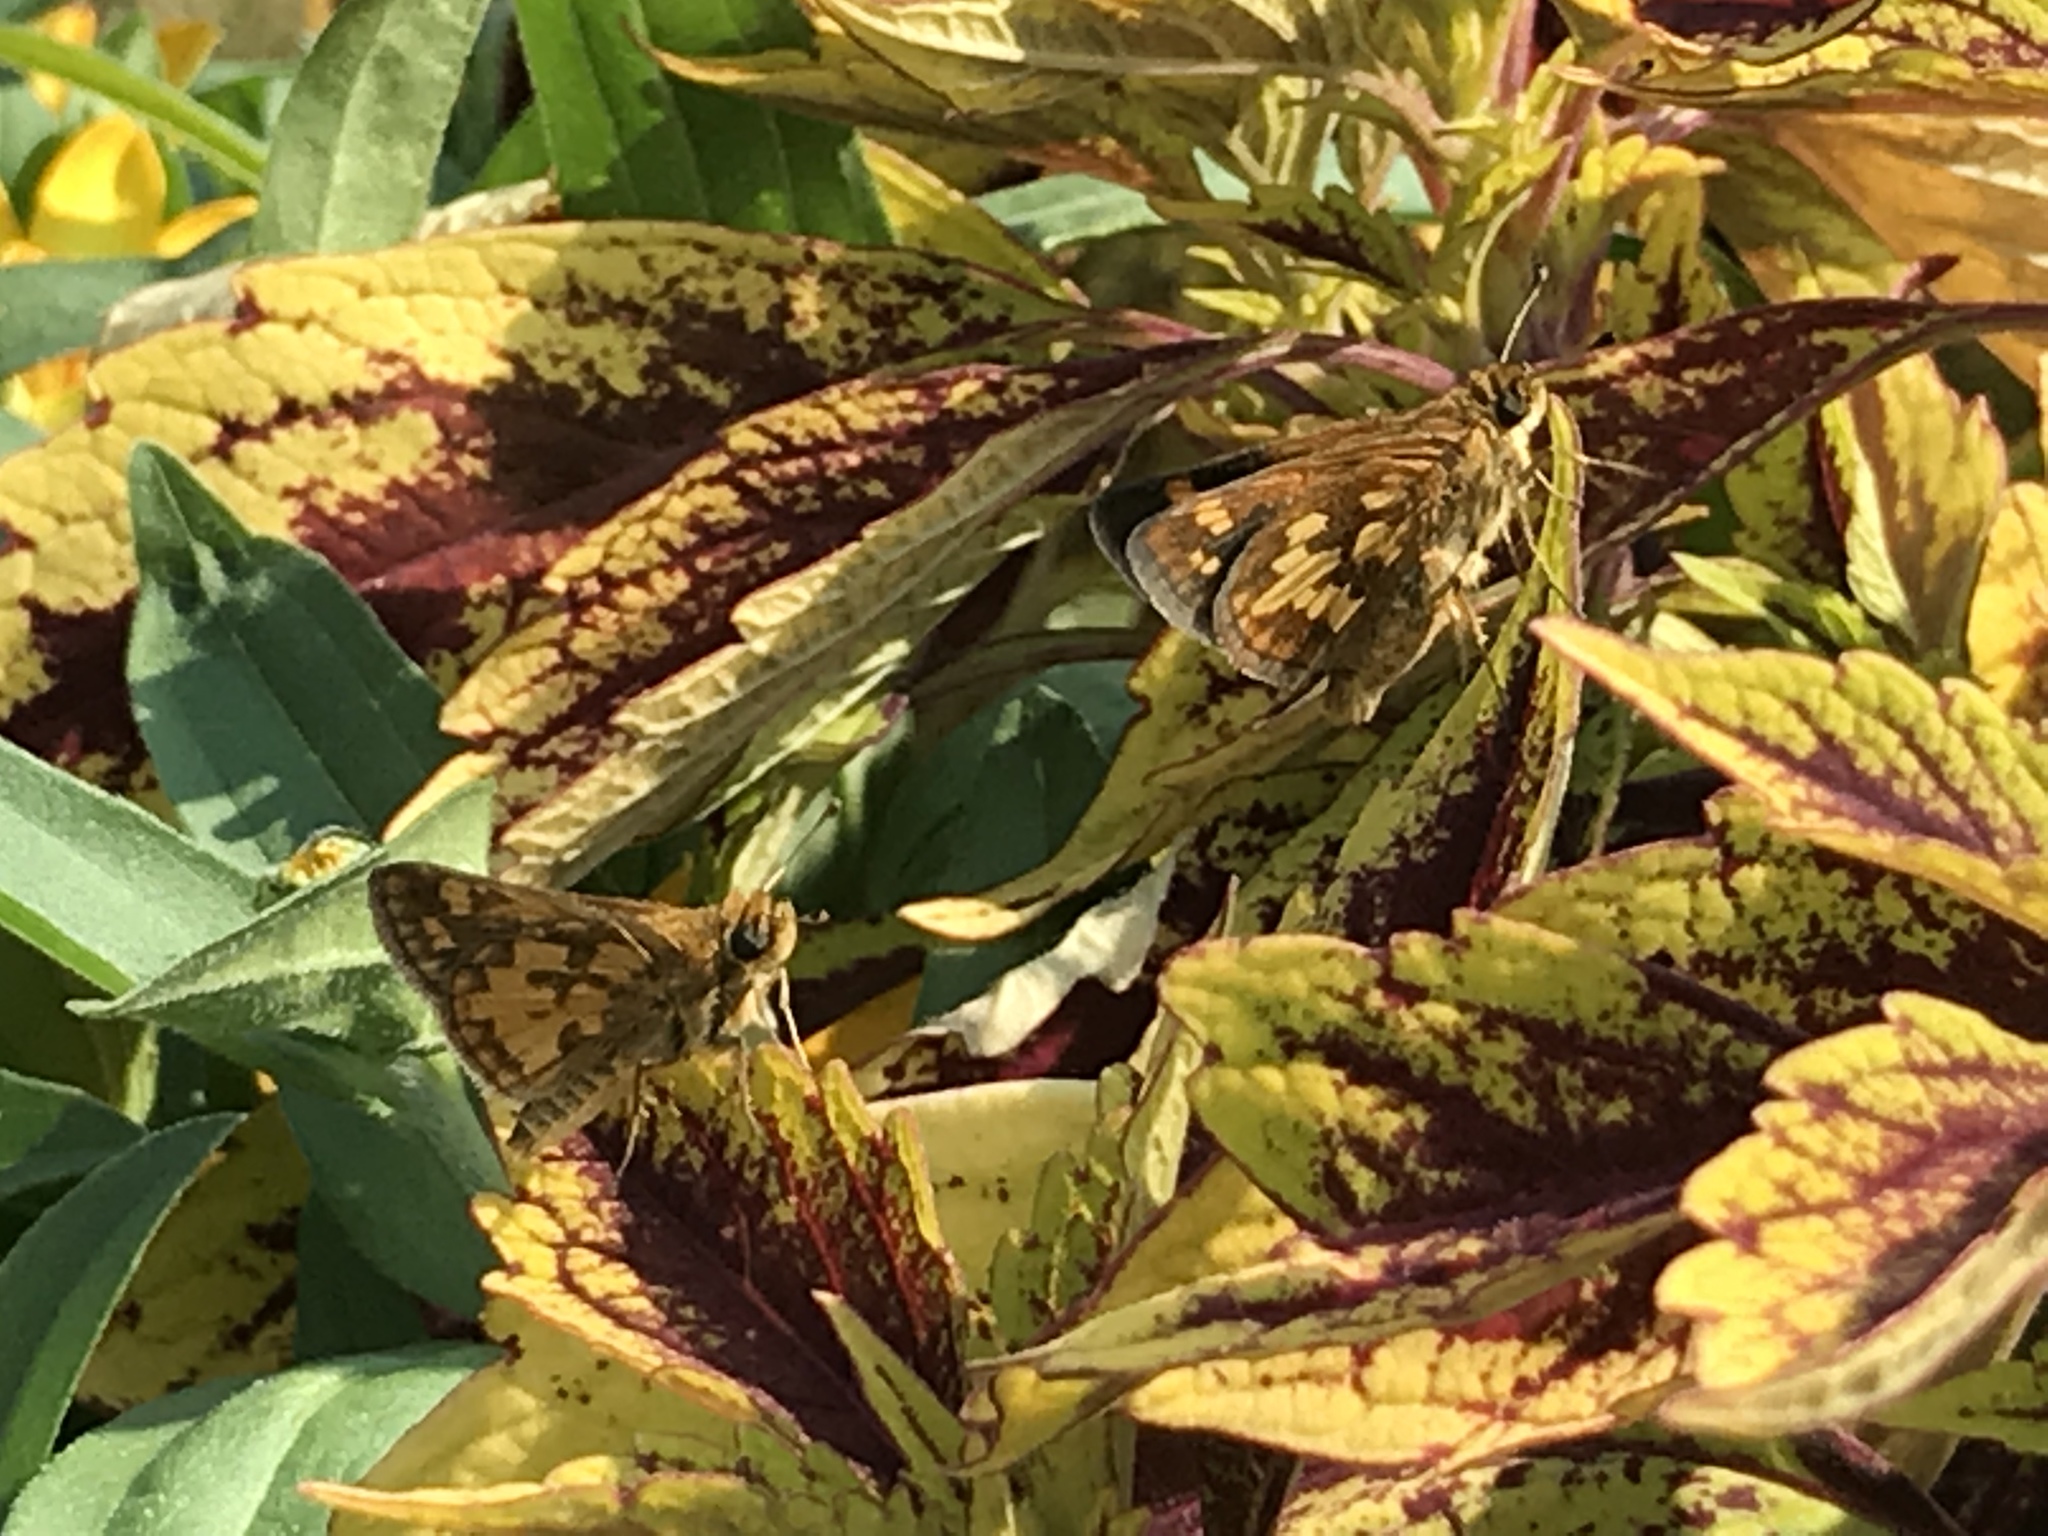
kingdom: Animalia
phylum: Arthropoda
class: Insecta
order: Lepidoptera
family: Hesperiidae
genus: Polites
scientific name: Polites coras
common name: Peck's skipper
